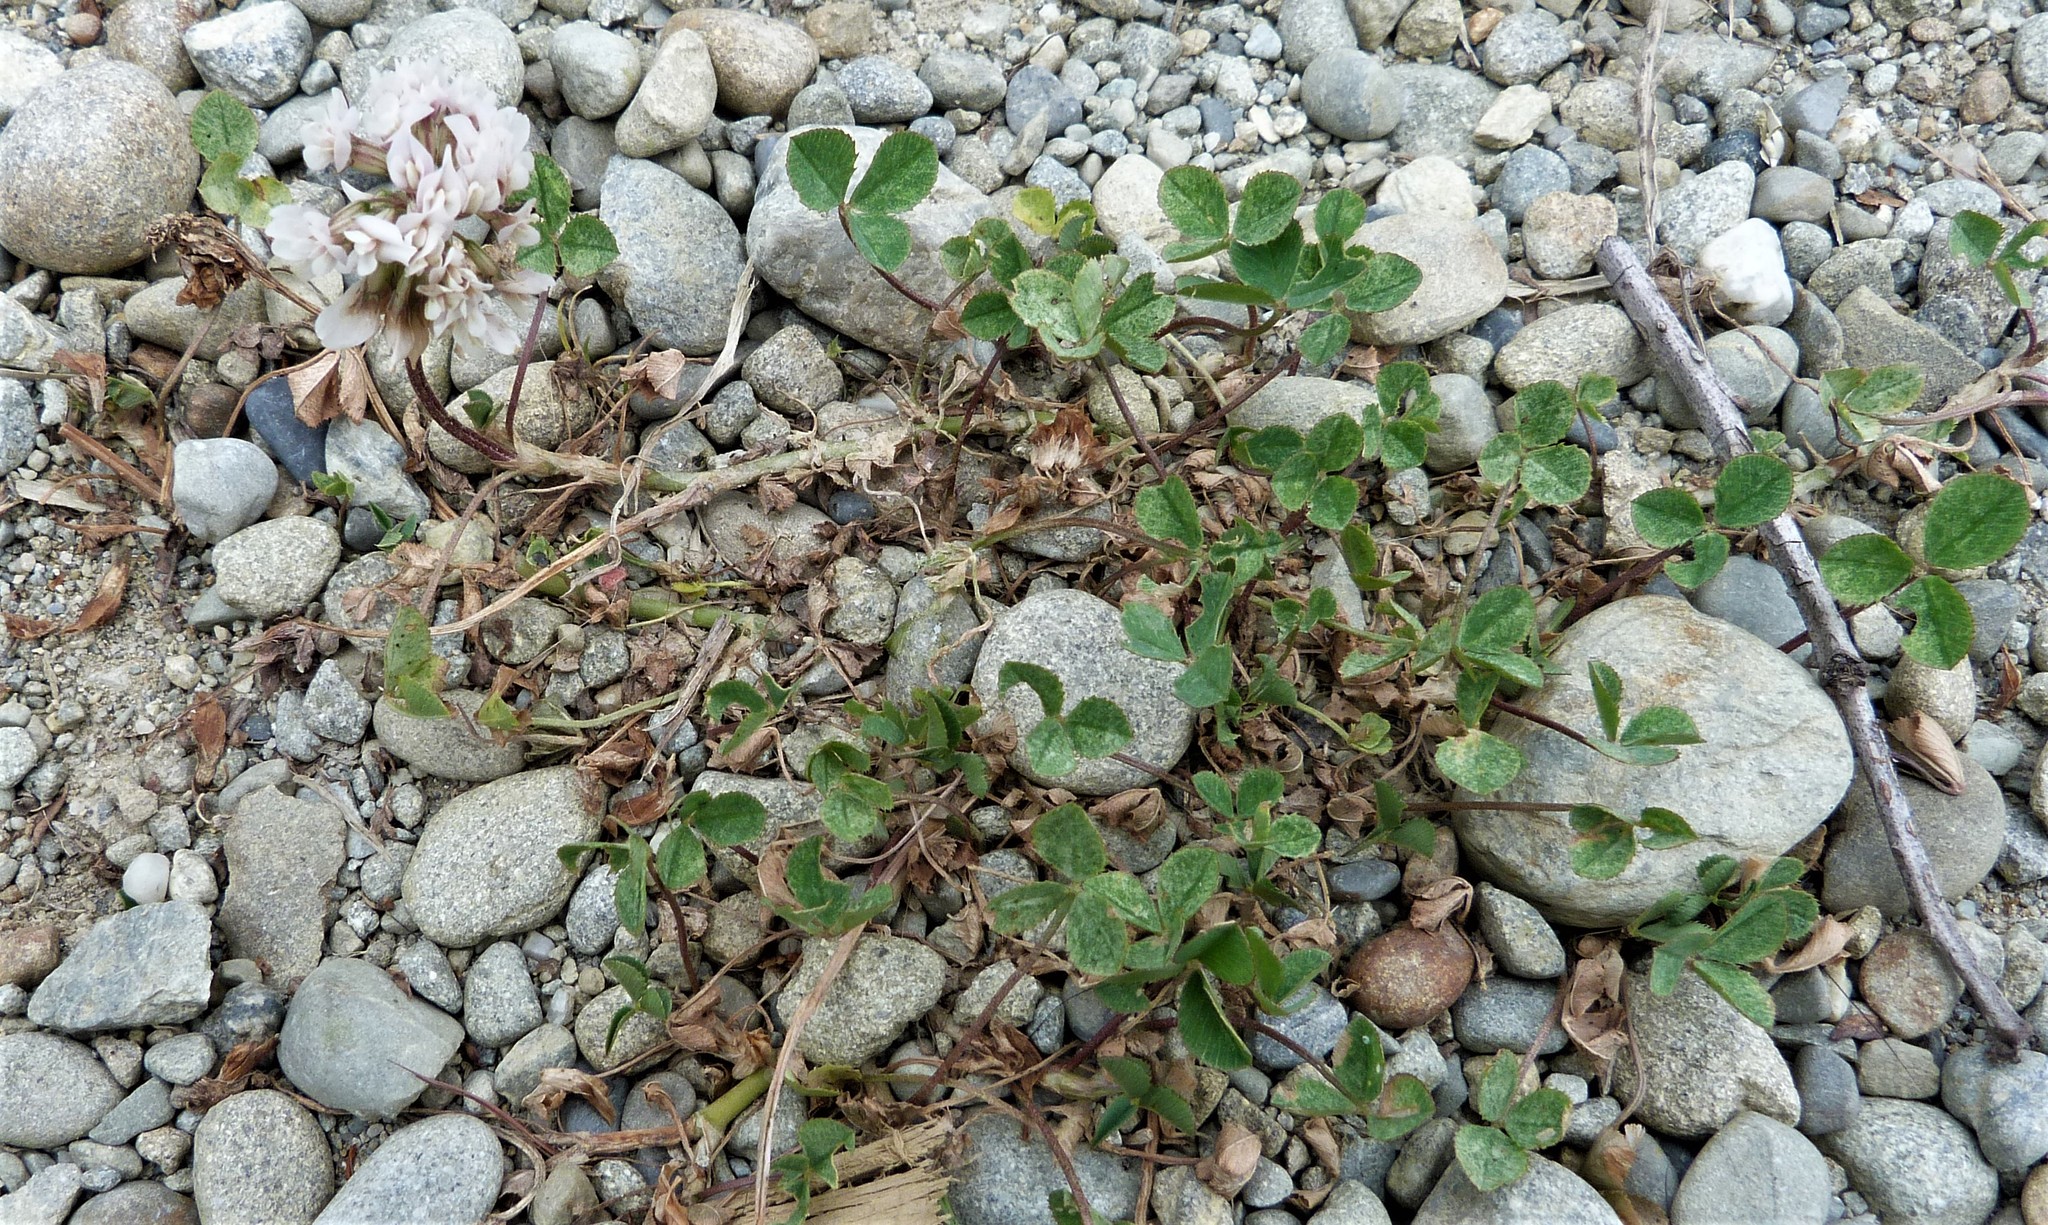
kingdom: Plantae
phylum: Tracheophyta
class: Magnoliopsida
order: Fabales
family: Fabaceae
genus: Trifolium
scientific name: Trifolium repens
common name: White clover
